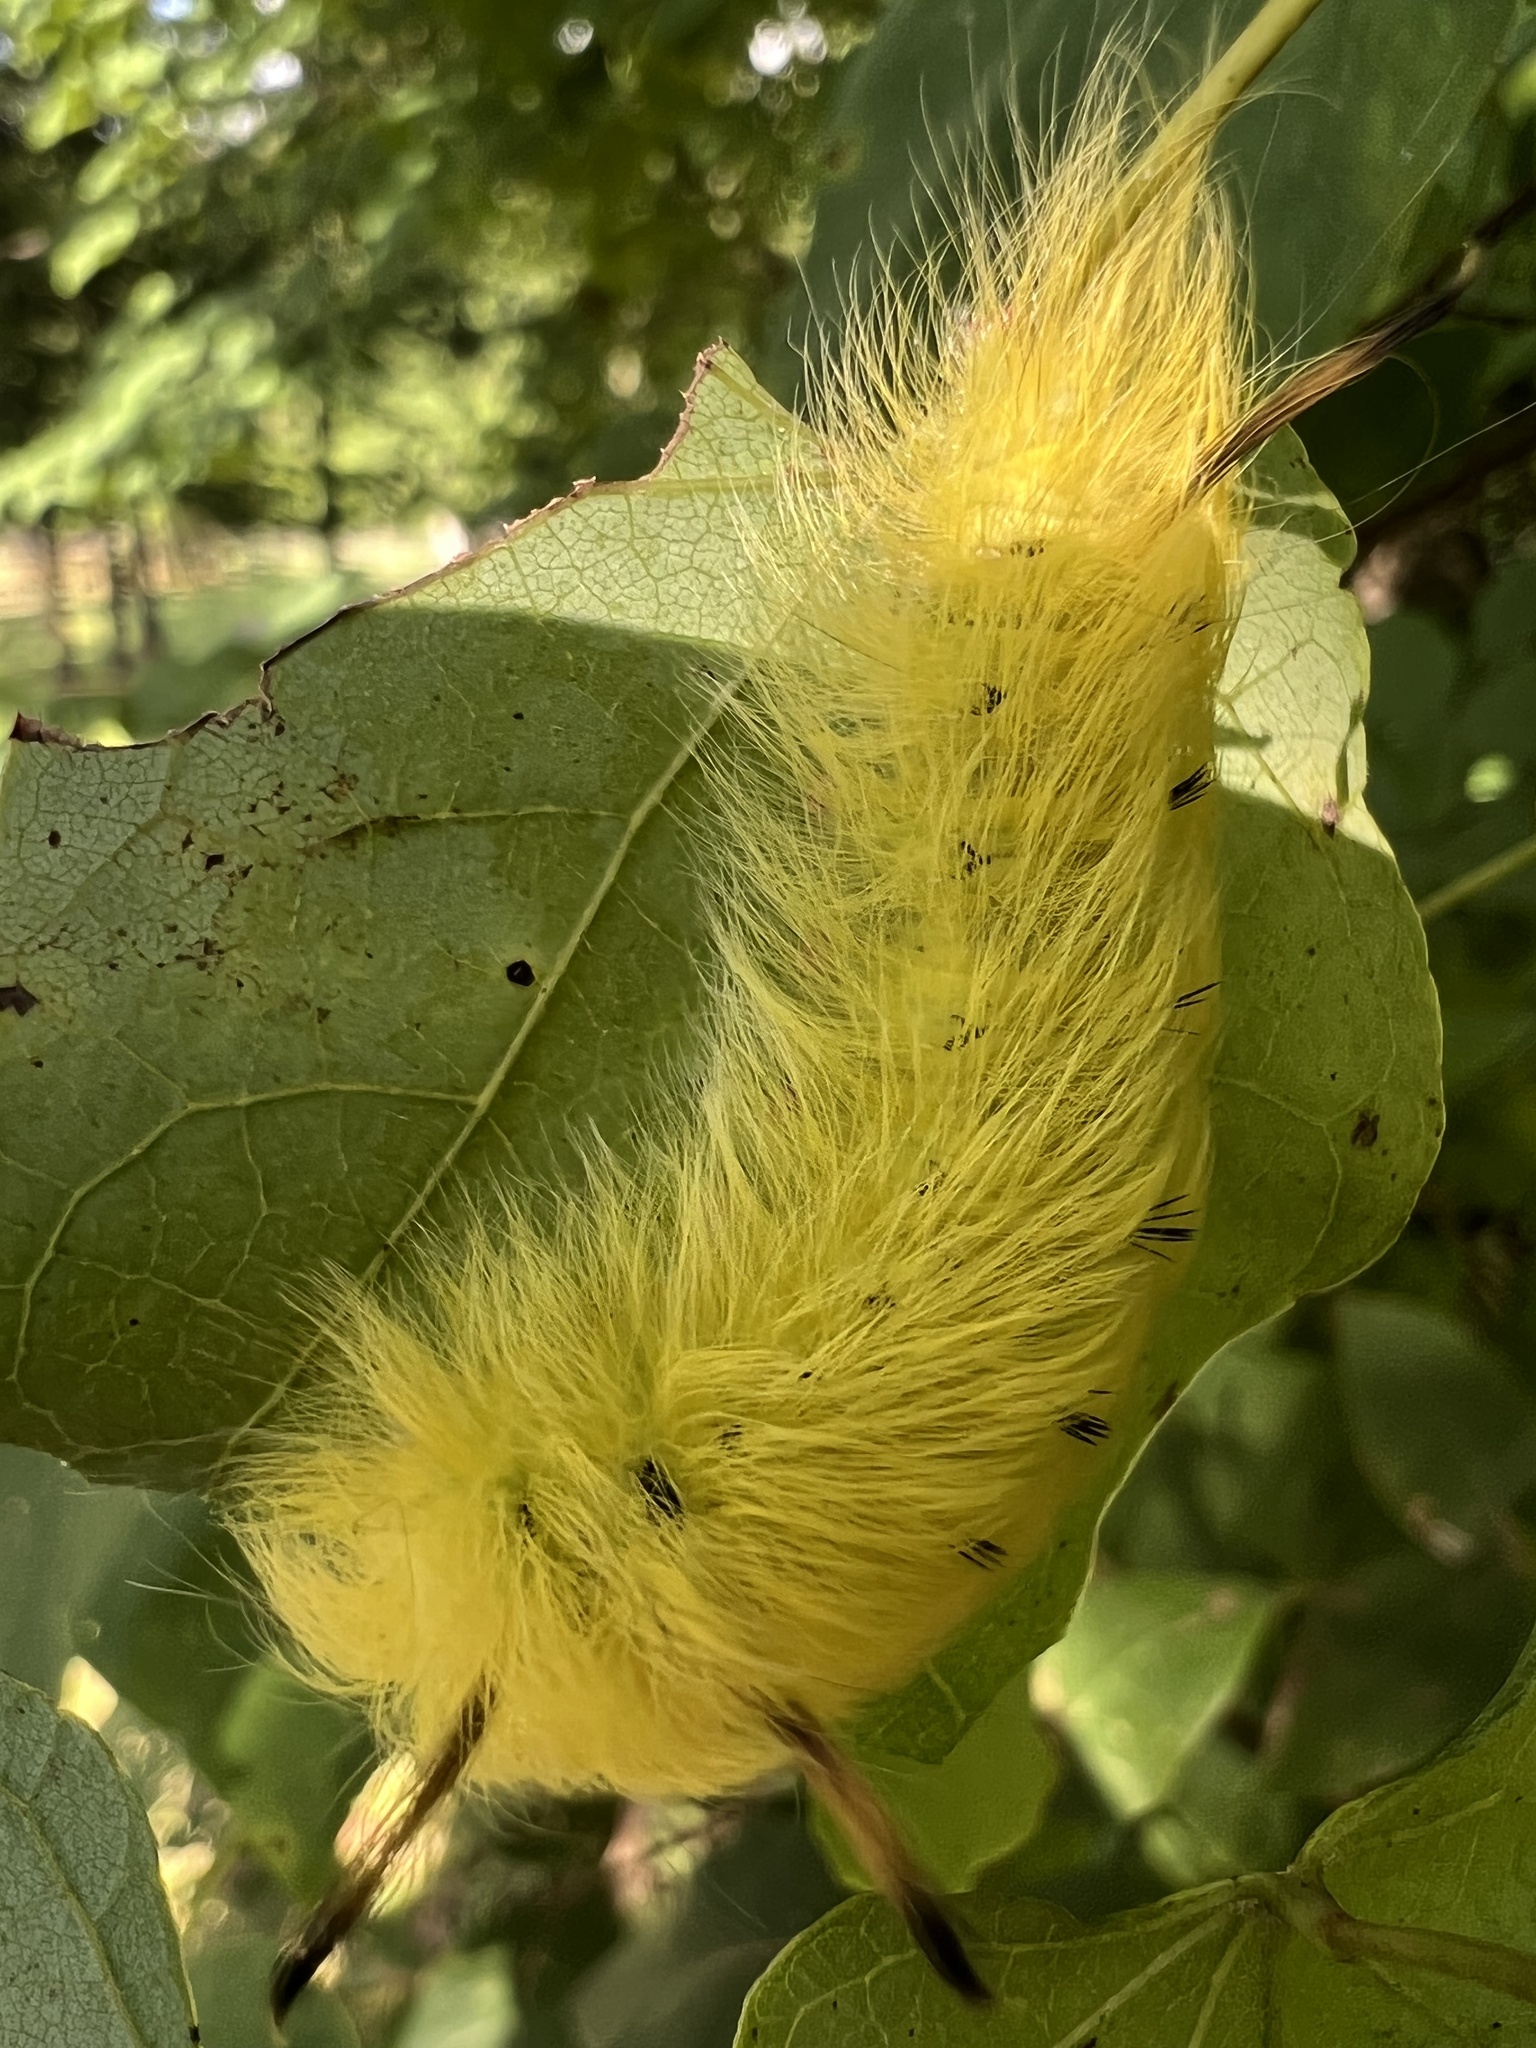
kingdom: Animalia
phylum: Arthropoda
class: Insecta
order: Lepidoptera
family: Apatelodidae
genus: Hygrochroa
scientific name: Hygrochroa Apatelodes torrefacta
